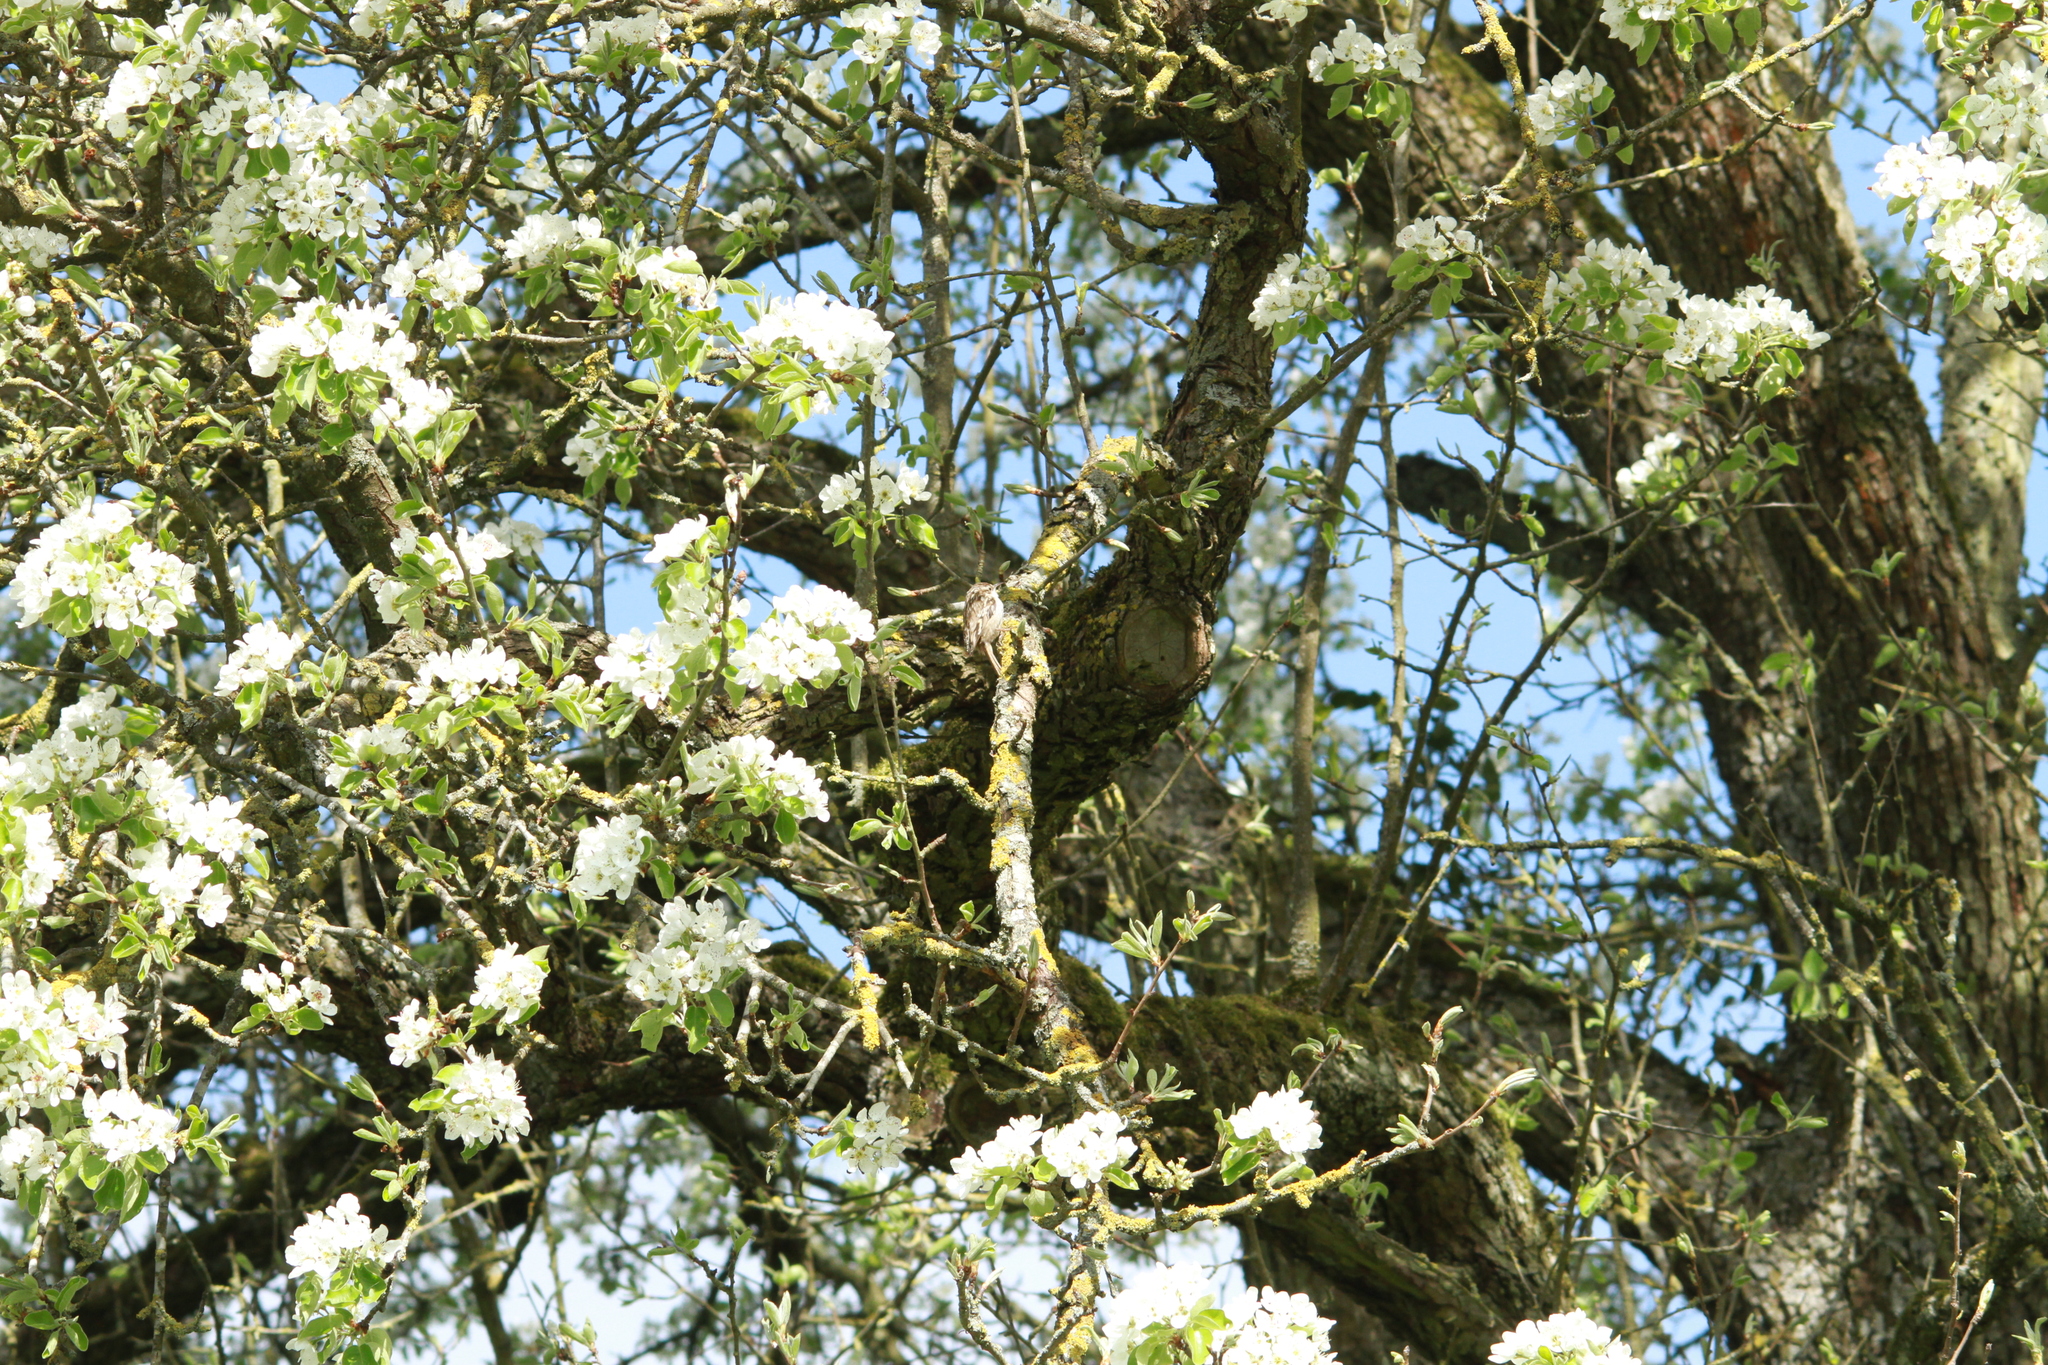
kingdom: Animalia
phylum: Chordata
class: Aves
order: Passeriformes
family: Certhiidae
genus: Certhia
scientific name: Certhia brachydactyla
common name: Short-toed treecreeper
